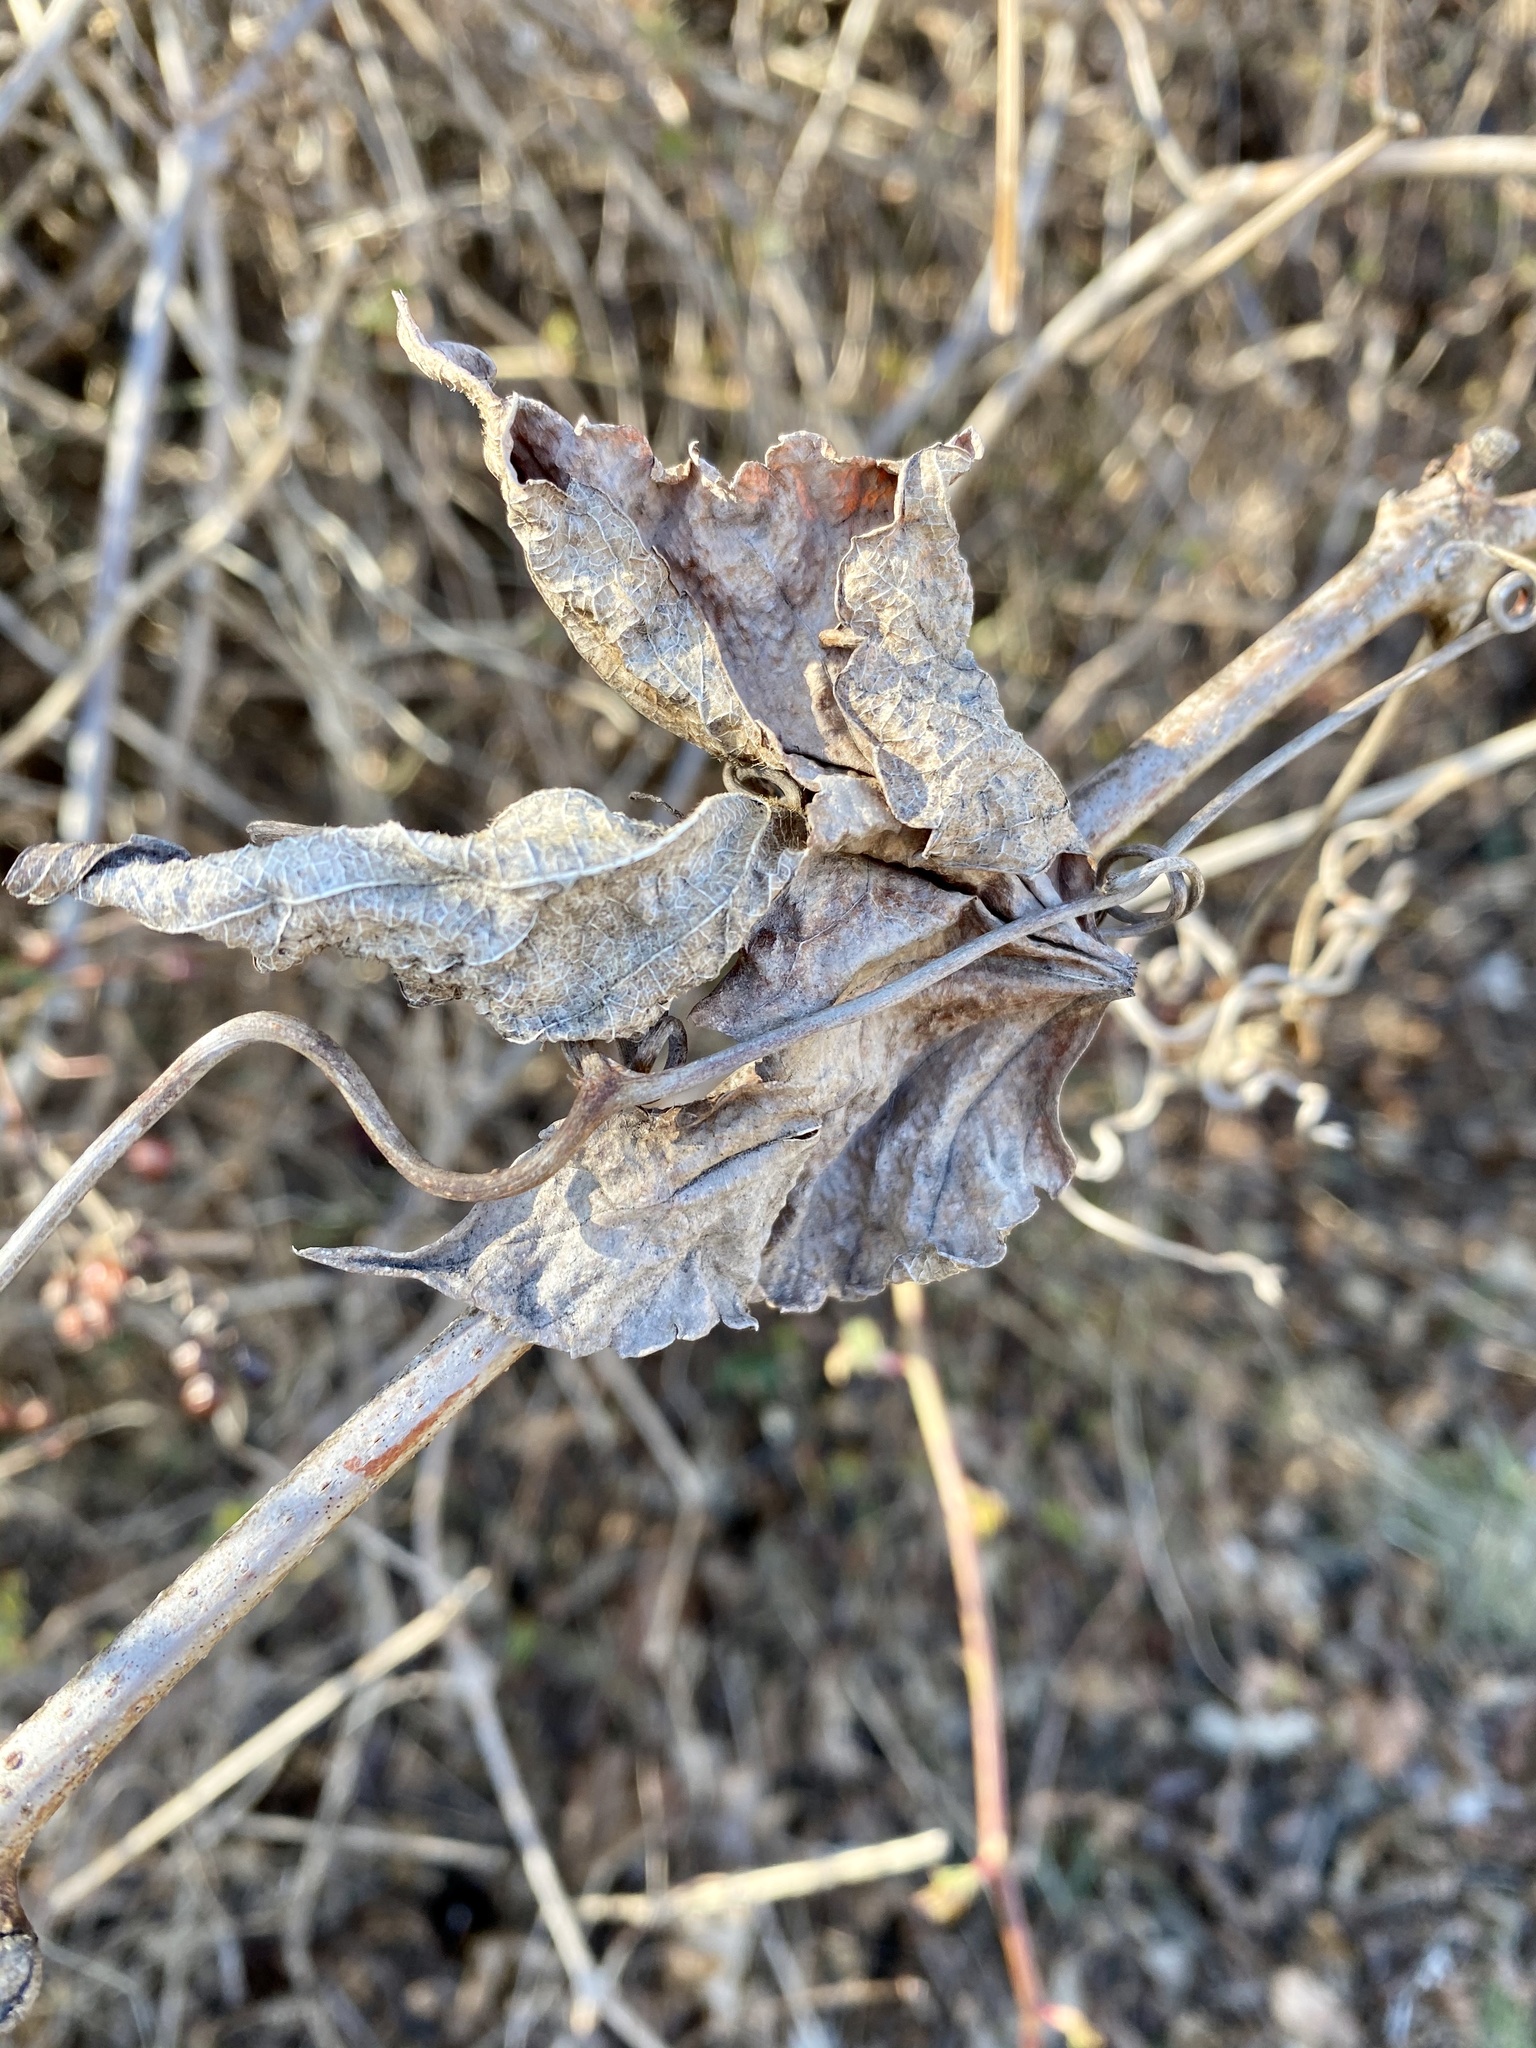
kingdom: Plantae
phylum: Tracheophyta
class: Magnoliopsida
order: Vitales
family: Vitaceae
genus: Ampelopsis
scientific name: Ampelopsis glandulosa
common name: Amur peppervine
